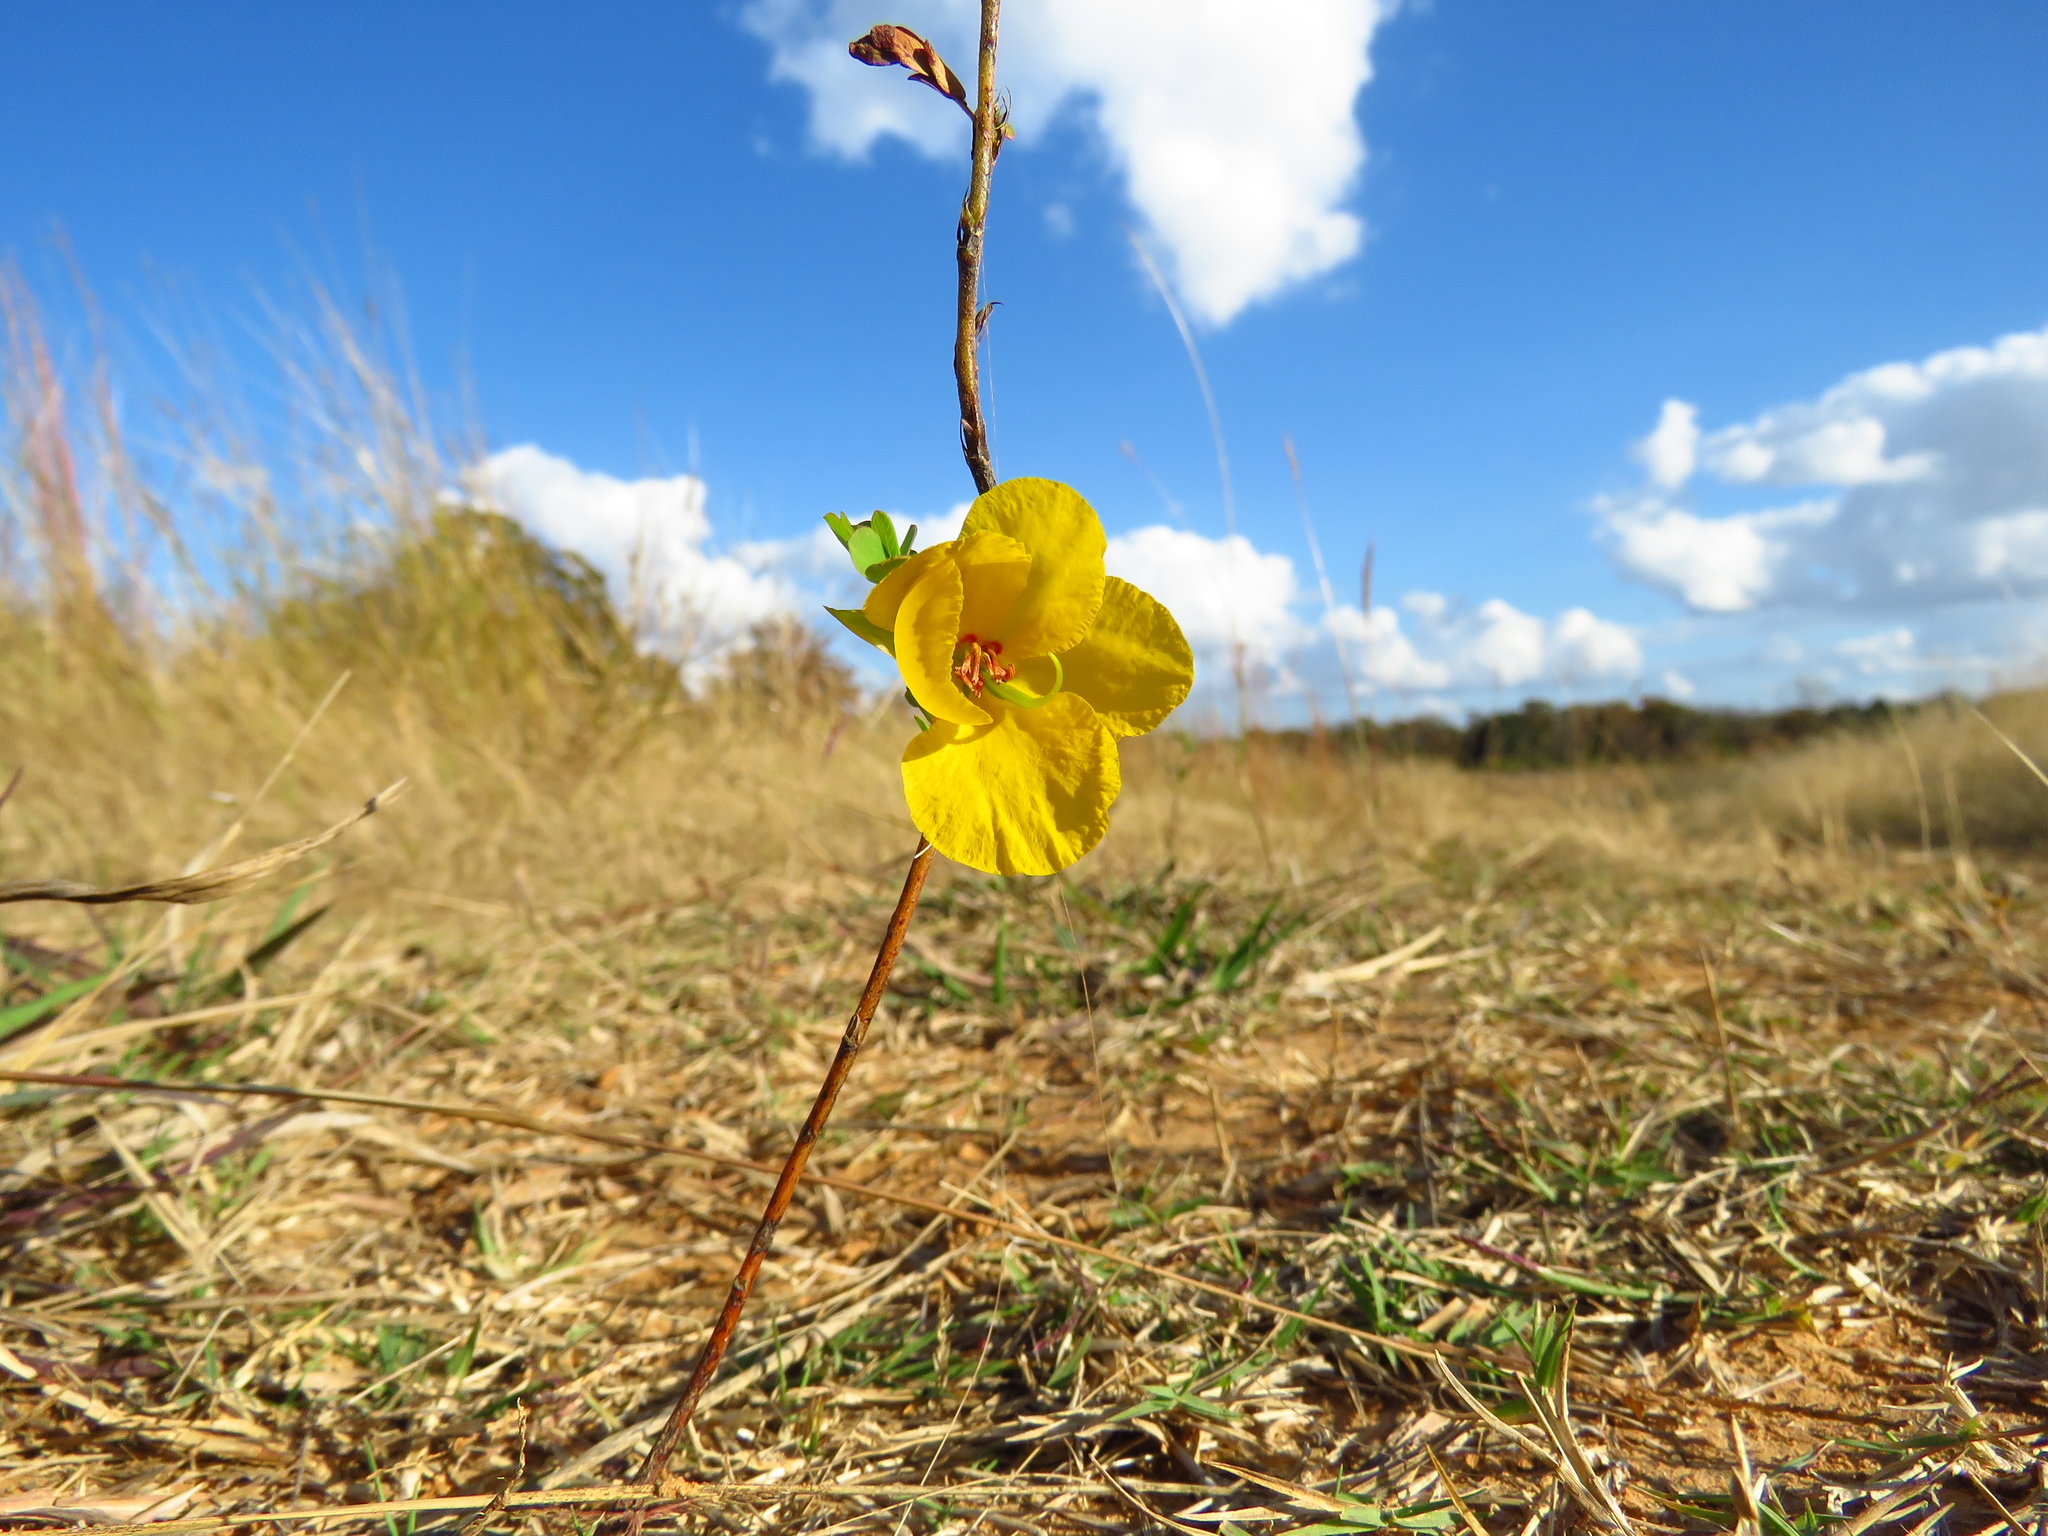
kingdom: Plantae
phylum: Tracheophyta
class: Magnoliopsida
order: Fabales
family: Fabaceae
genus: Chamaecrista
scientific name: Chamaecrista fasciculata
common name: Golden cassia
